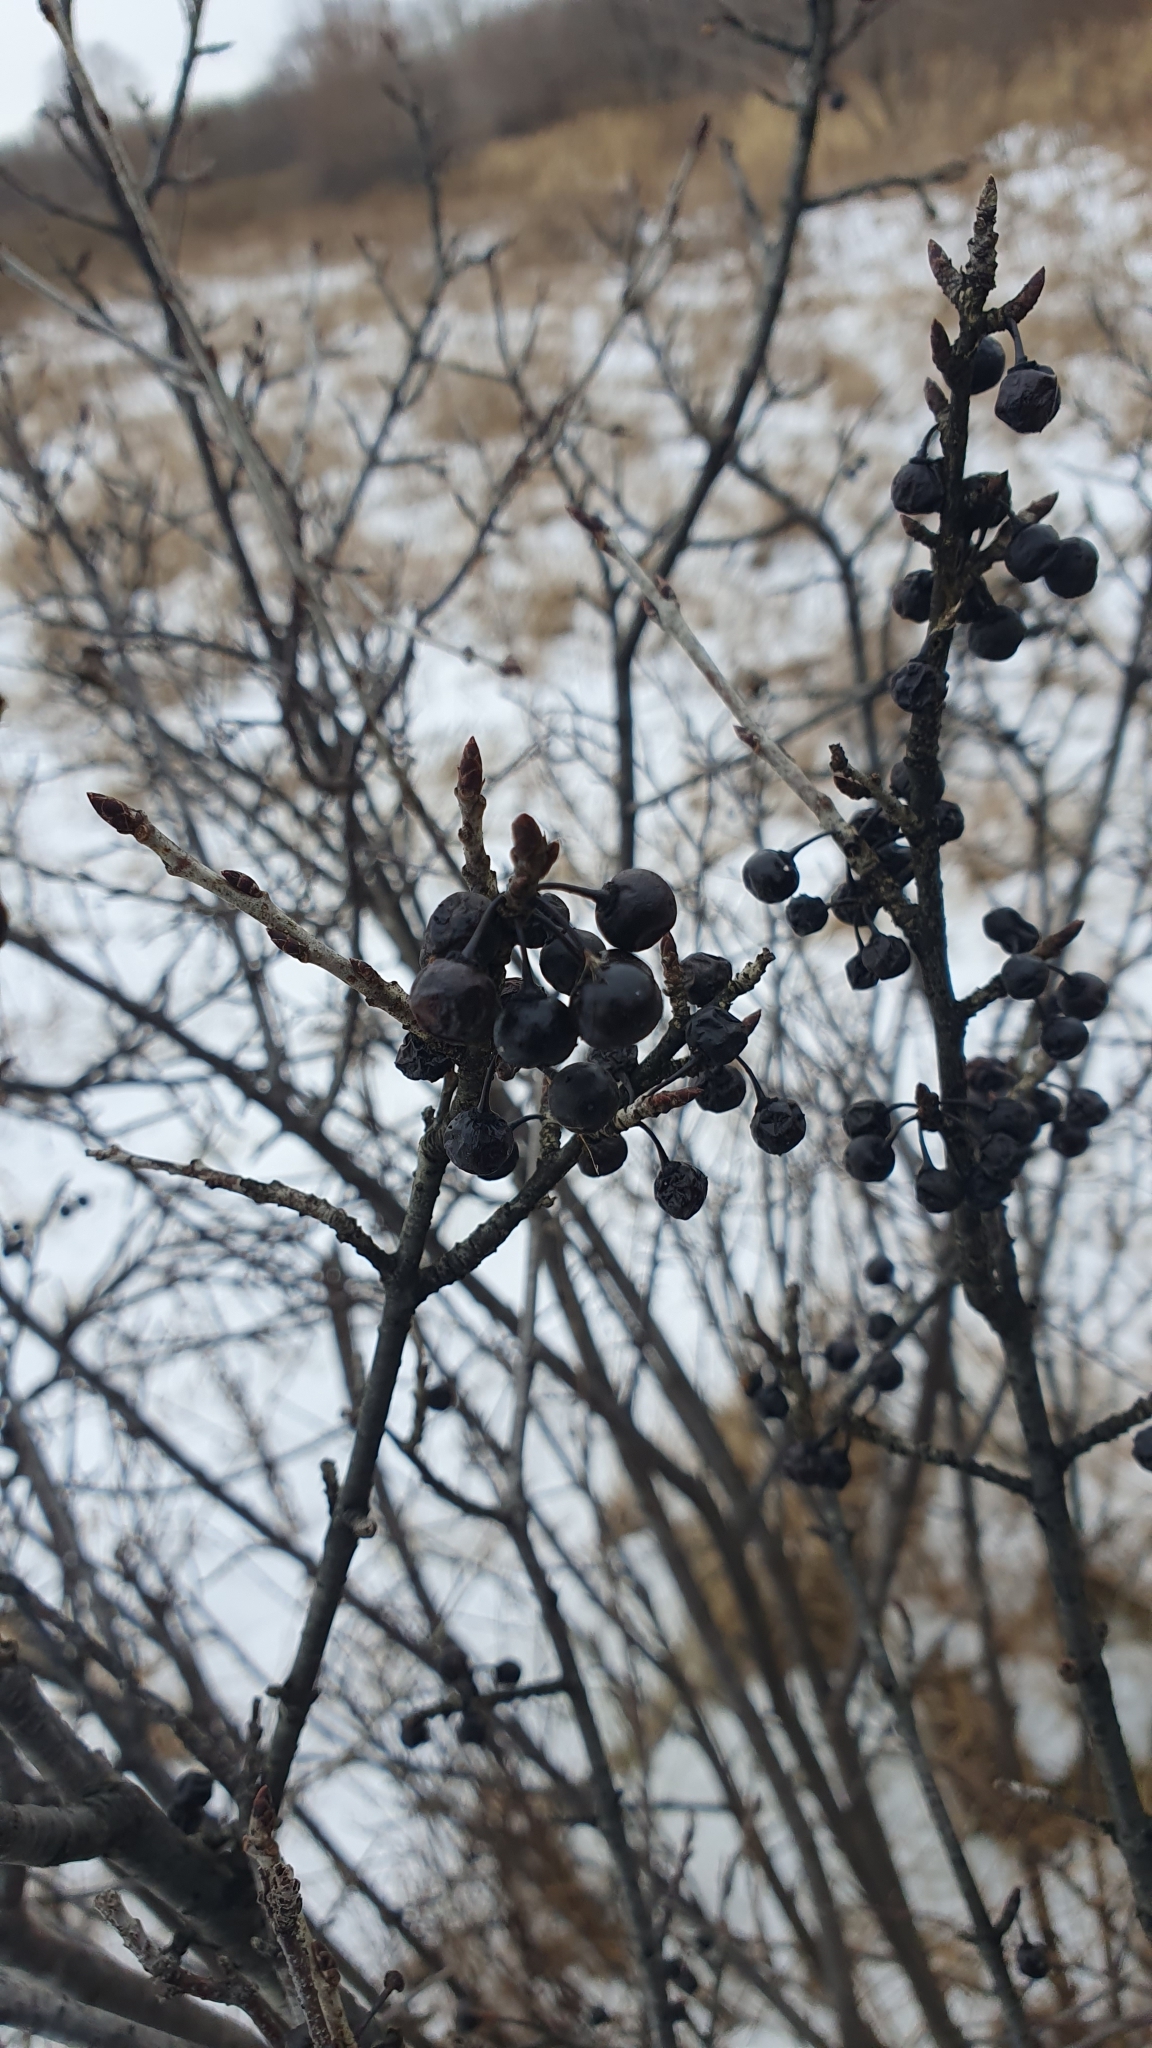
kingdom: Plantae
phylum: Tracheophyta
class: Magnoliopsida
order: Rosales
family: Rhamnaceae
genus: Rhamnus
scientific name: Rhamnus cathartica
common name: Common buckthorn
